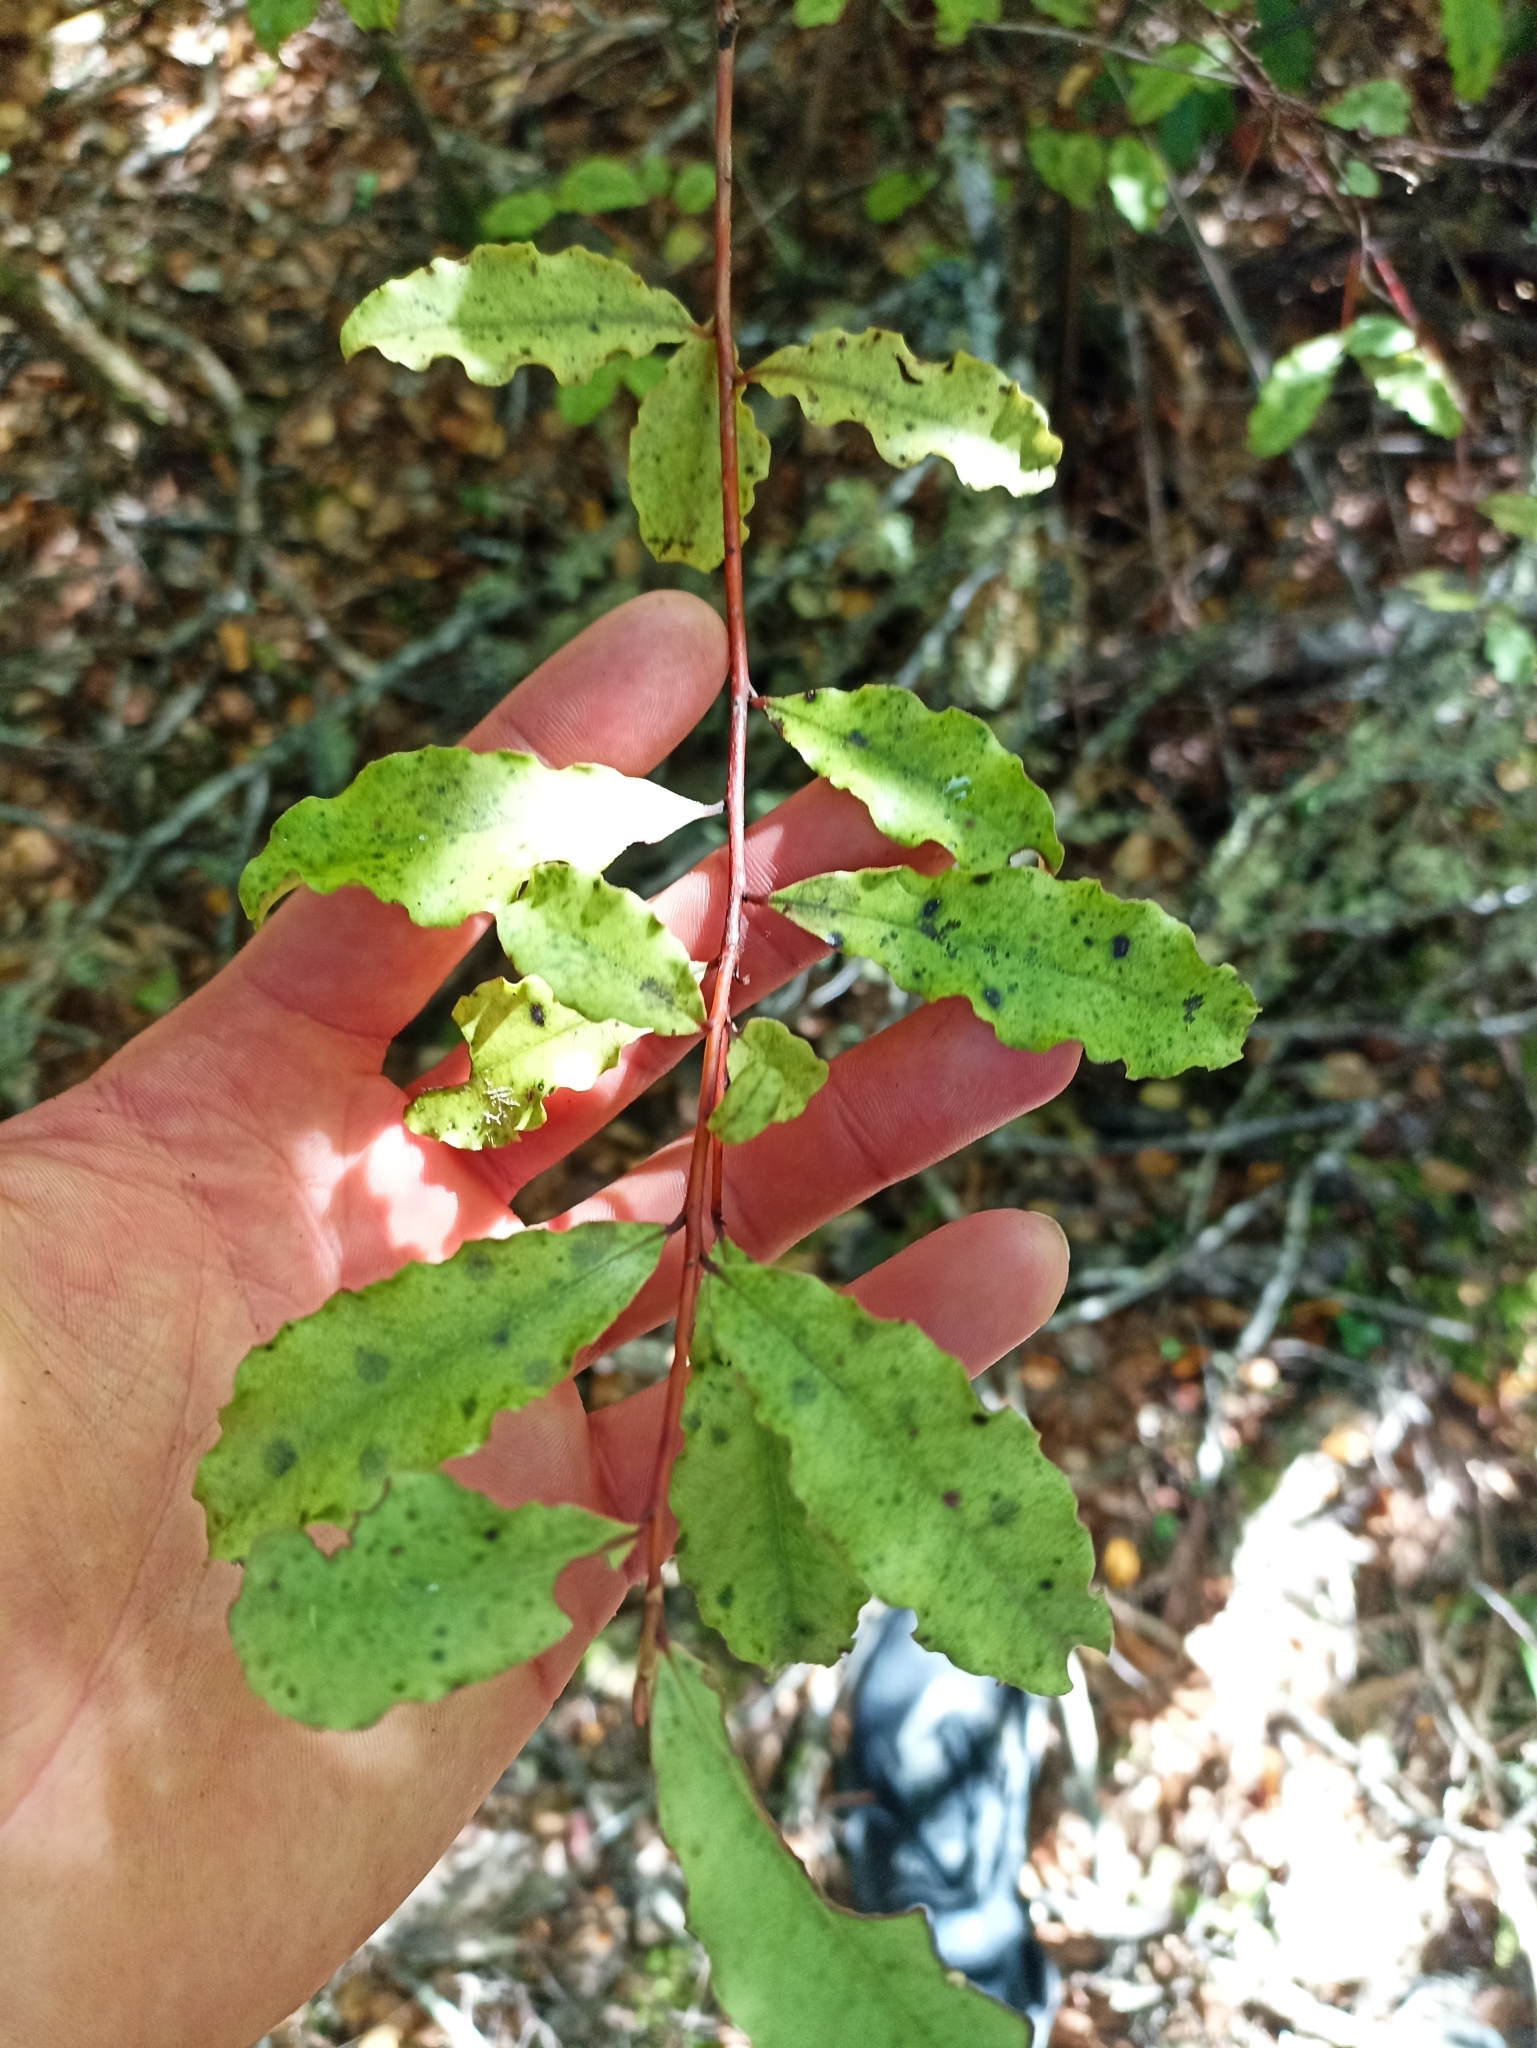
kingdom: Plantae
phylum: Tracheophyta
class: Magnoliopsida
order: Ericales
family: Primulaceae
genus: Myrsine
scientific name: Myrsine australis
